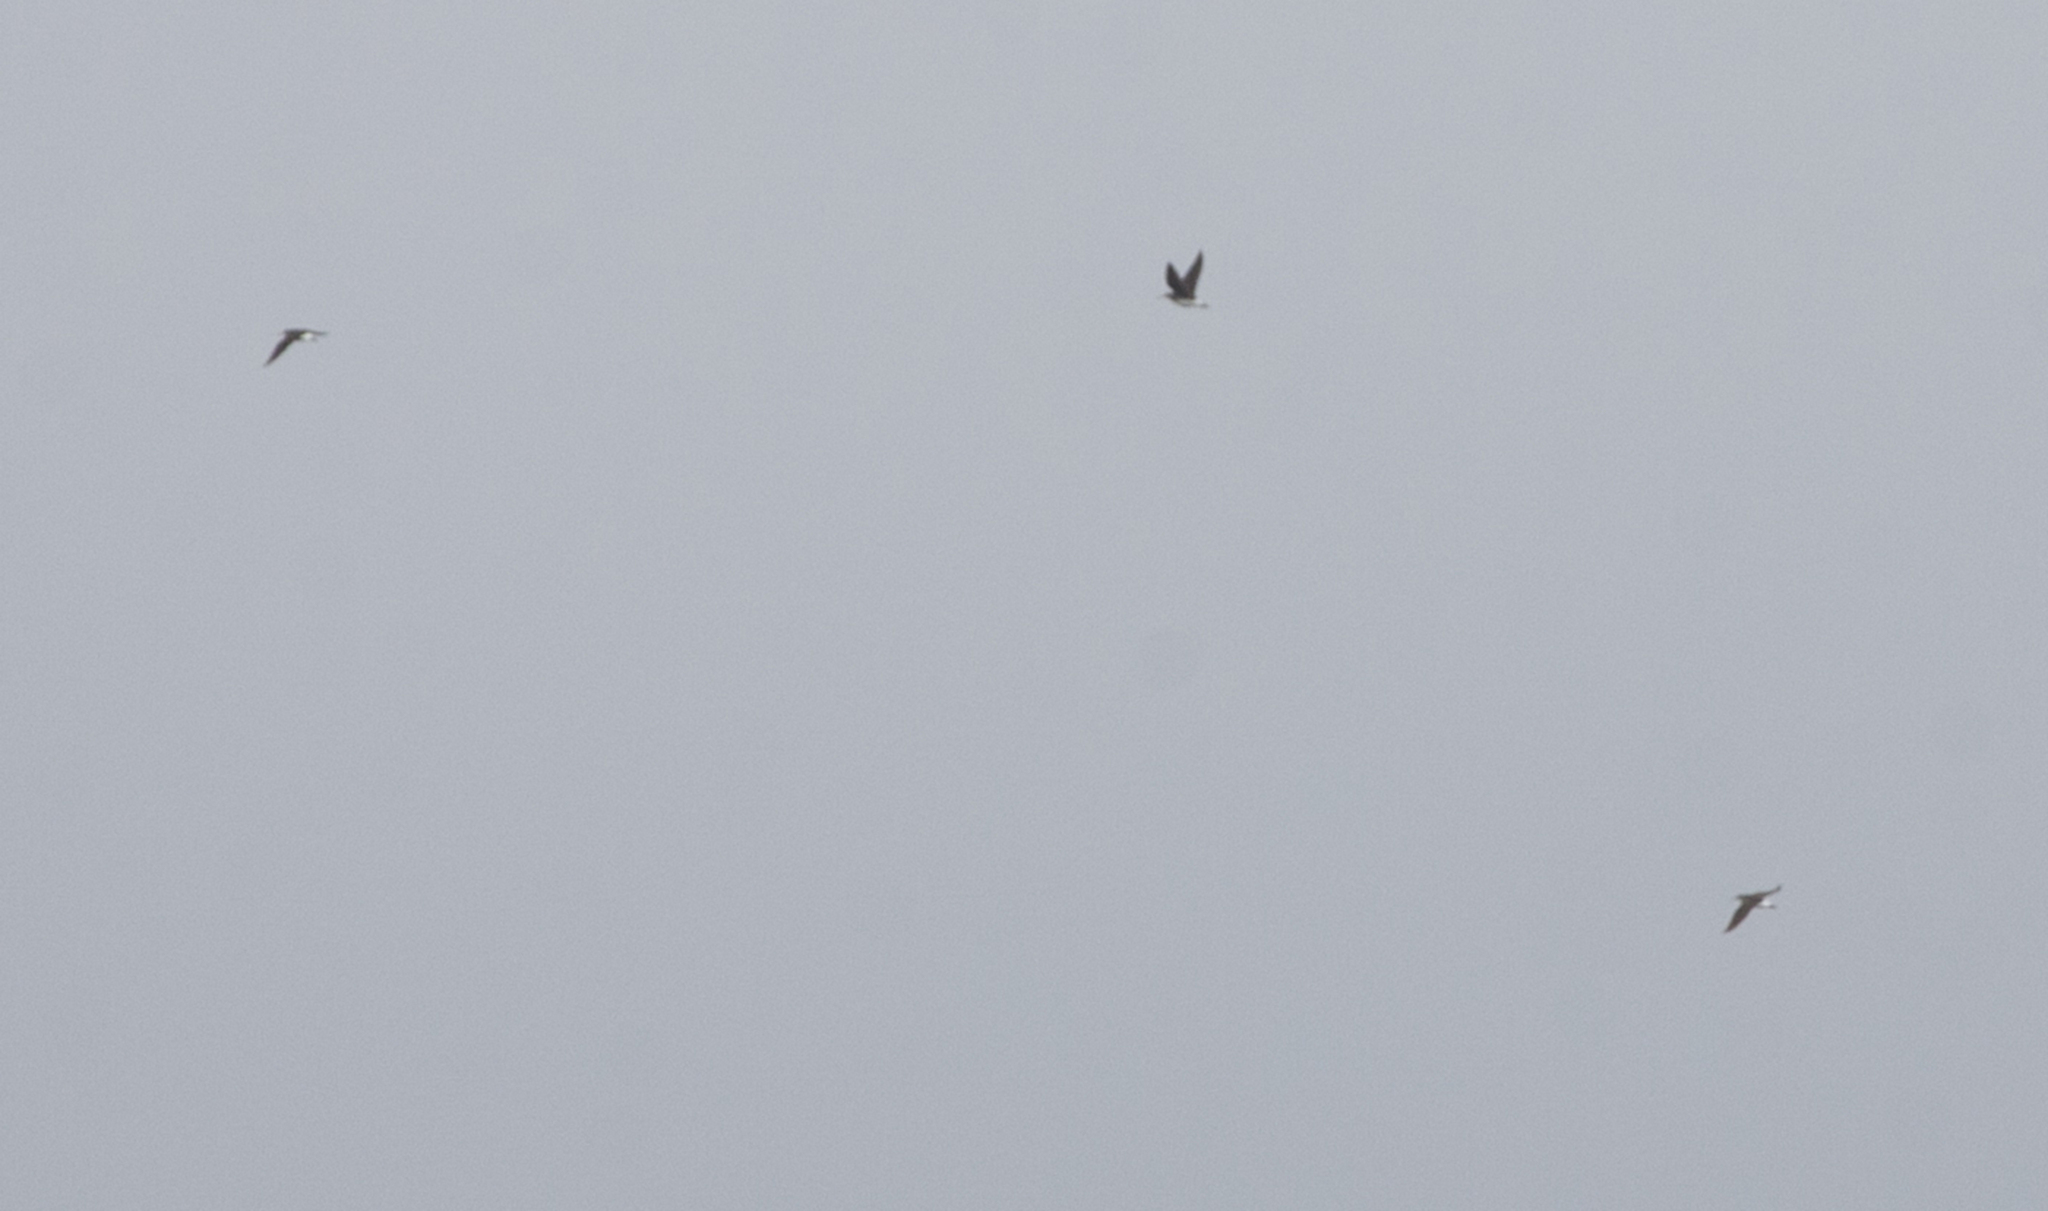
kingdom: Animalia
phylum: Chordata
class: Aves
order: Charadriiformes
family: Scolopacidae
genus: Tringa
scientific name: Tringa ochropus
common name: Green sandpiper
